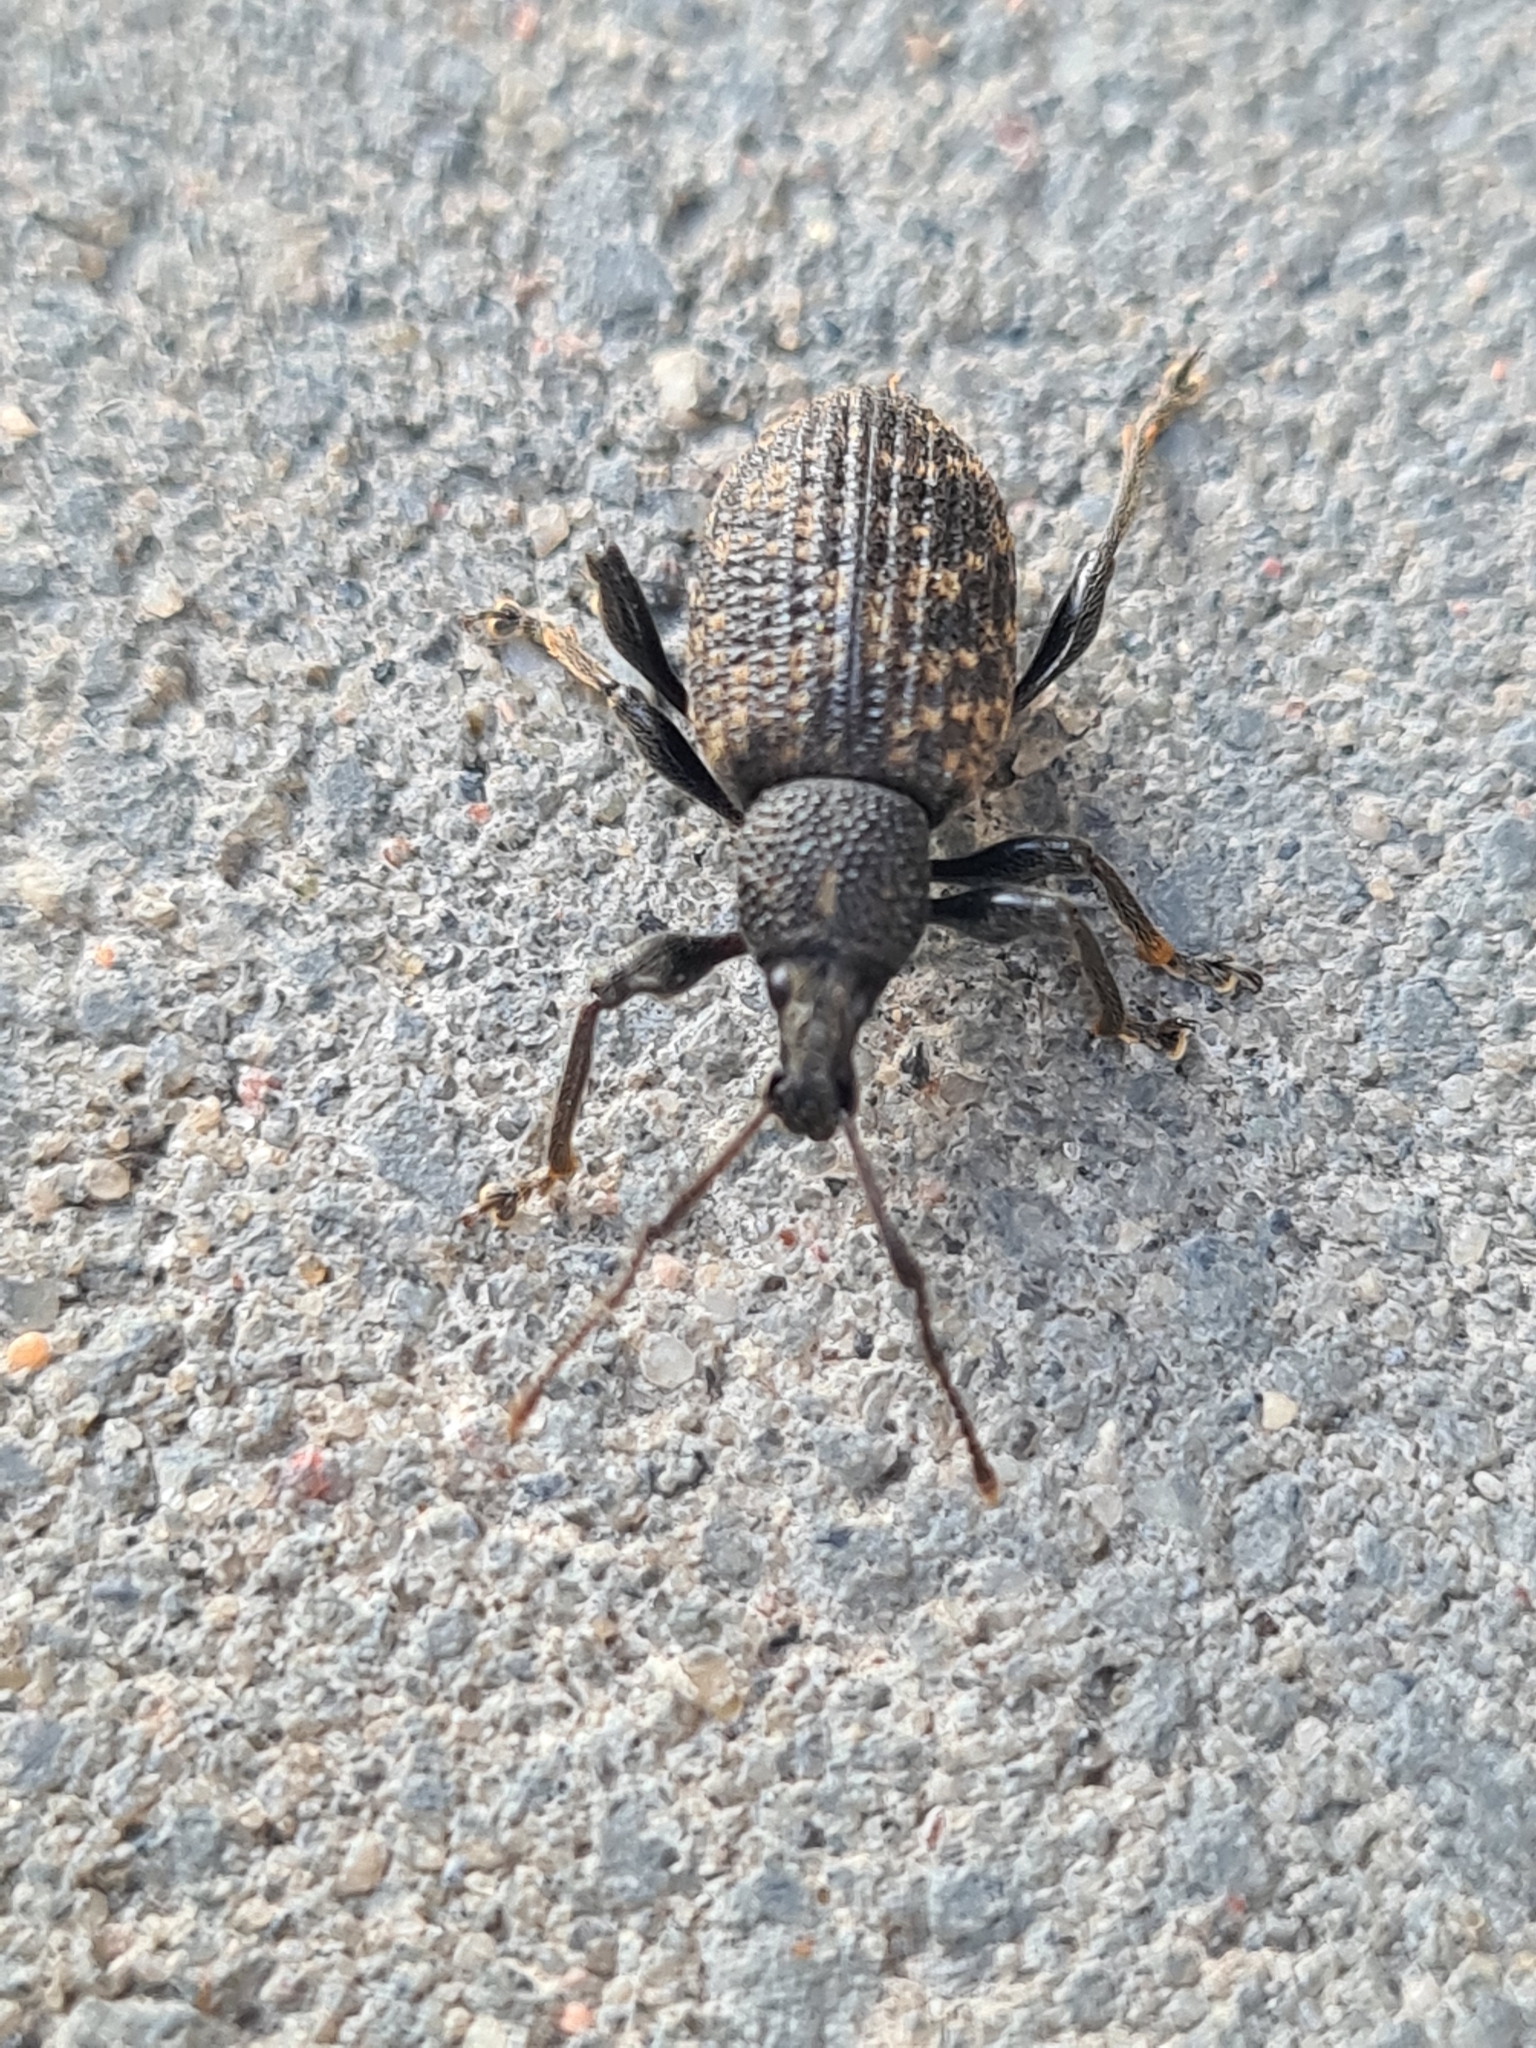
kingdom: Animalia
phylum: Arthropoda
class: Insecta
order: Coleoptera
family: Curculionidae
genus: Otiorhynchus
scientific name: Otiorhynchus sulcatus
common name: Black vine weevil
